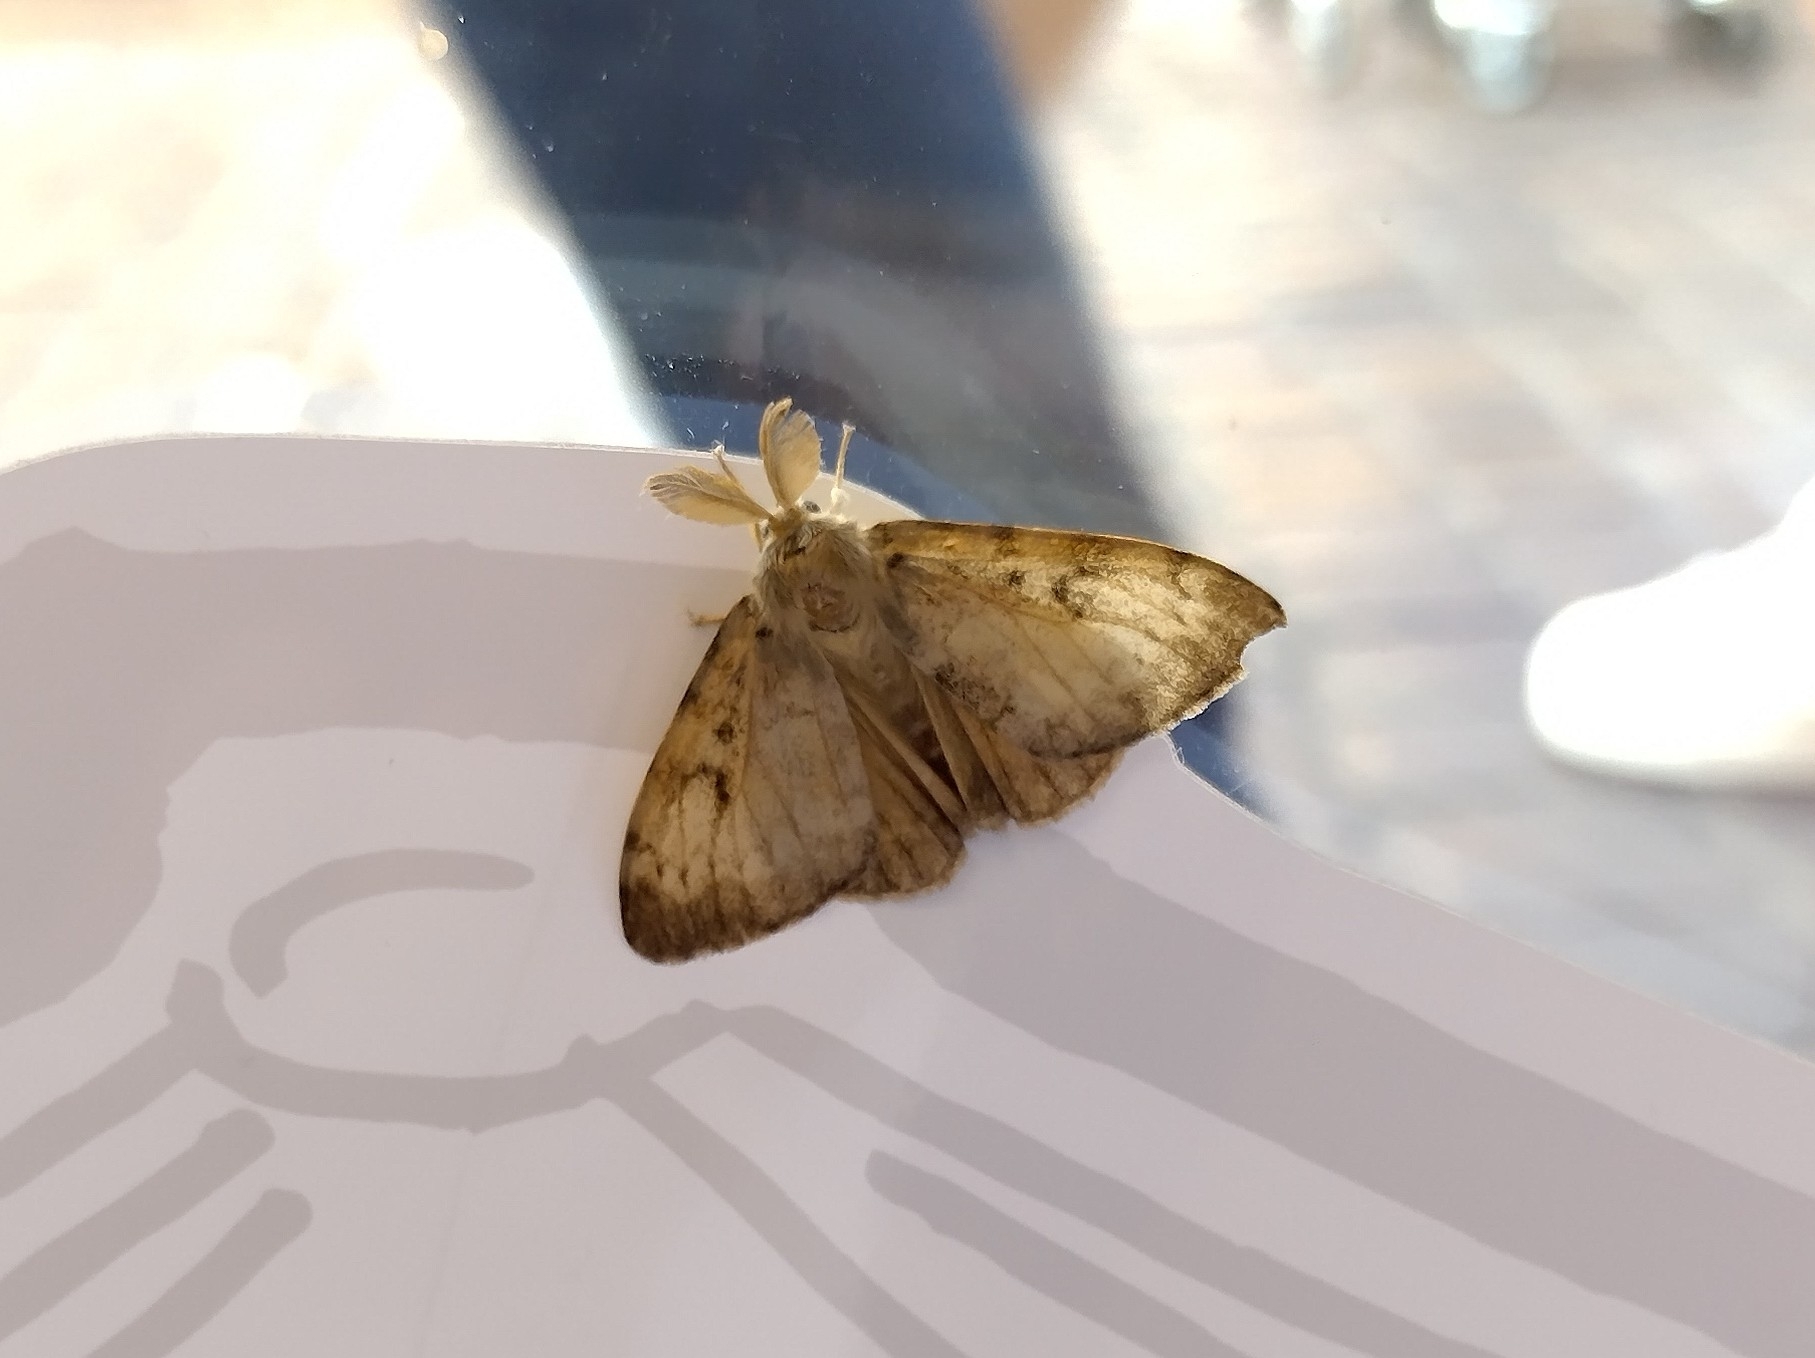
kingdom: Animalia
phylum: Arthropoda
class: Insecta
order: Lepidoptera
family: Erebidae
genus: Lymantria
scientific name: Lymantria dispar
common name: Gypsy moth
